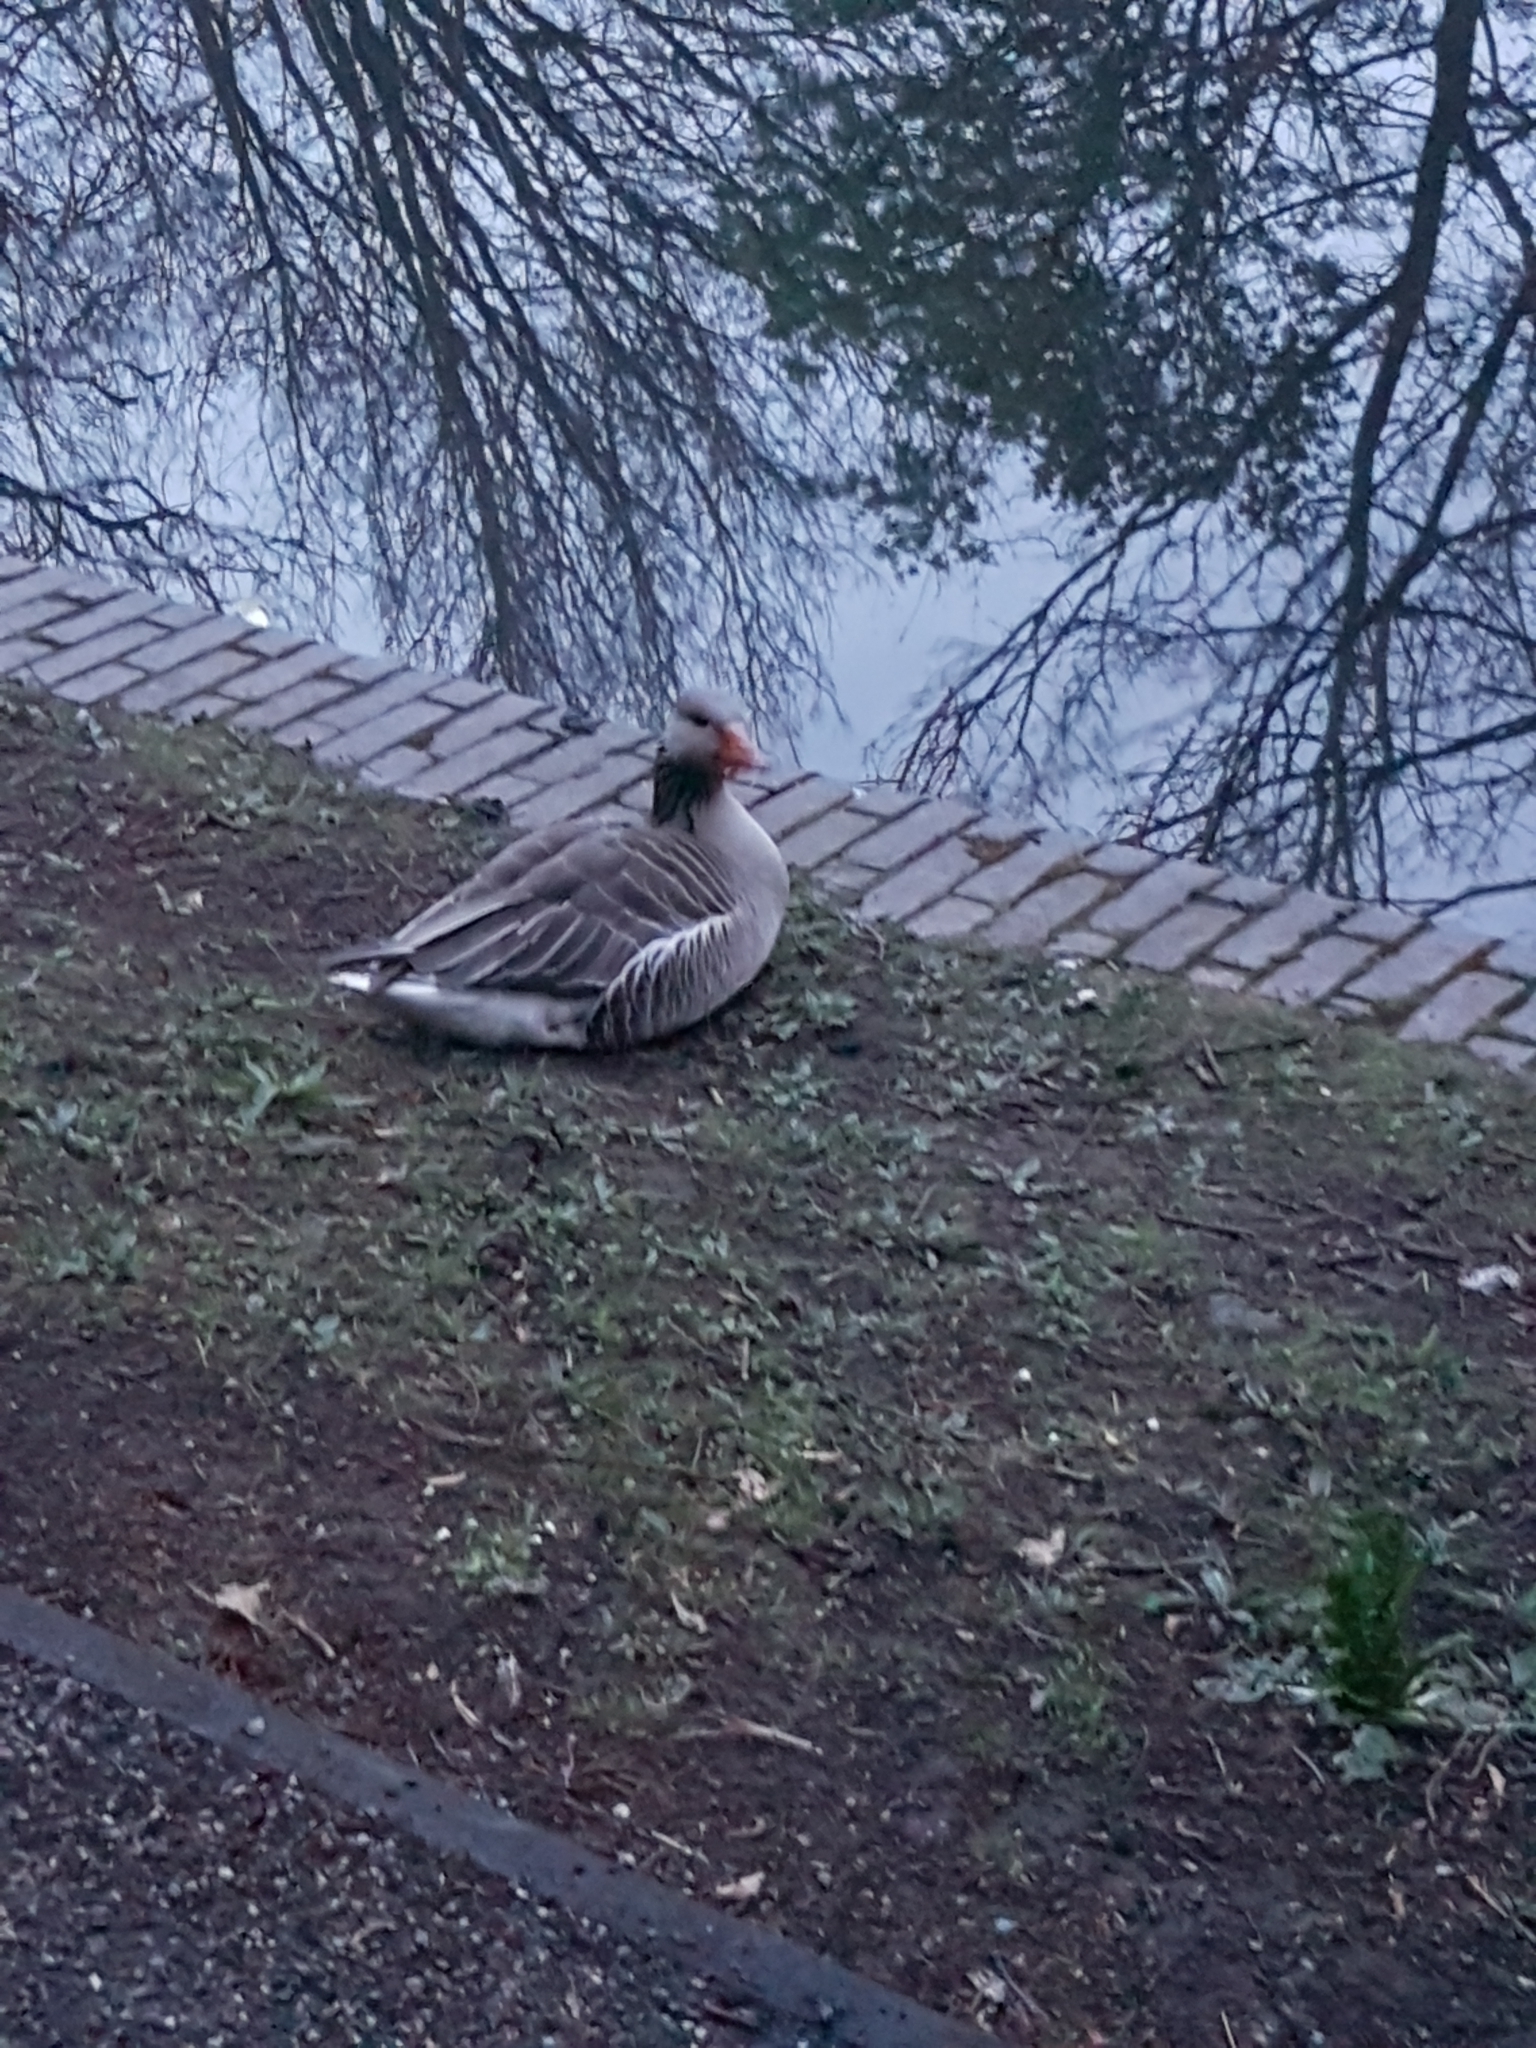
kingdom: Animalia
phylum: Chordata
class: Aves
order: Anseriformes
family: Anatidae
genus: Anser
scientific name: Anser anser
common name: Greylag goose
